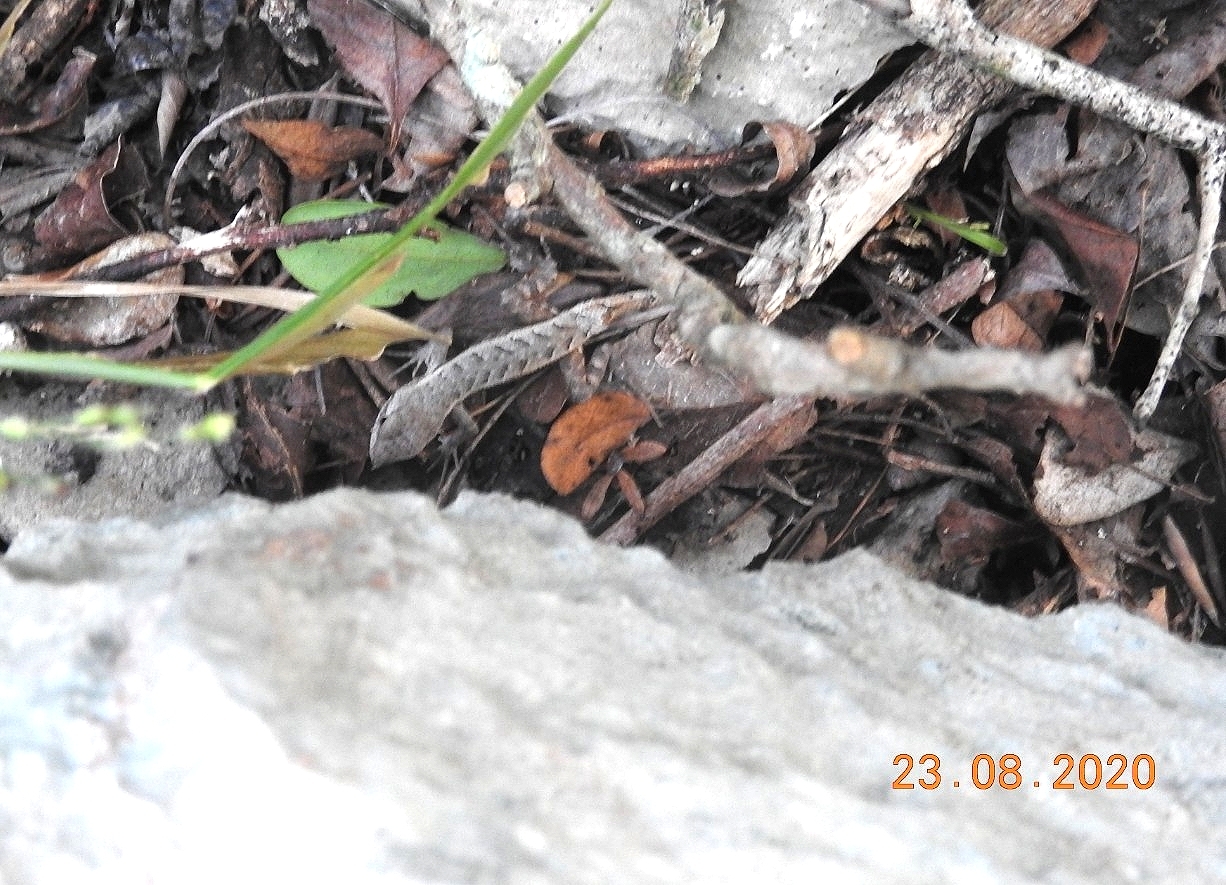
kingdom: Animalia
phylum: Chordata
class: Squamata
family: Phrynosomatidae
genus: Sceloporus
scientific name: Sceloporus chrysostictus
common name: Yellow-spotted spiny lizard
